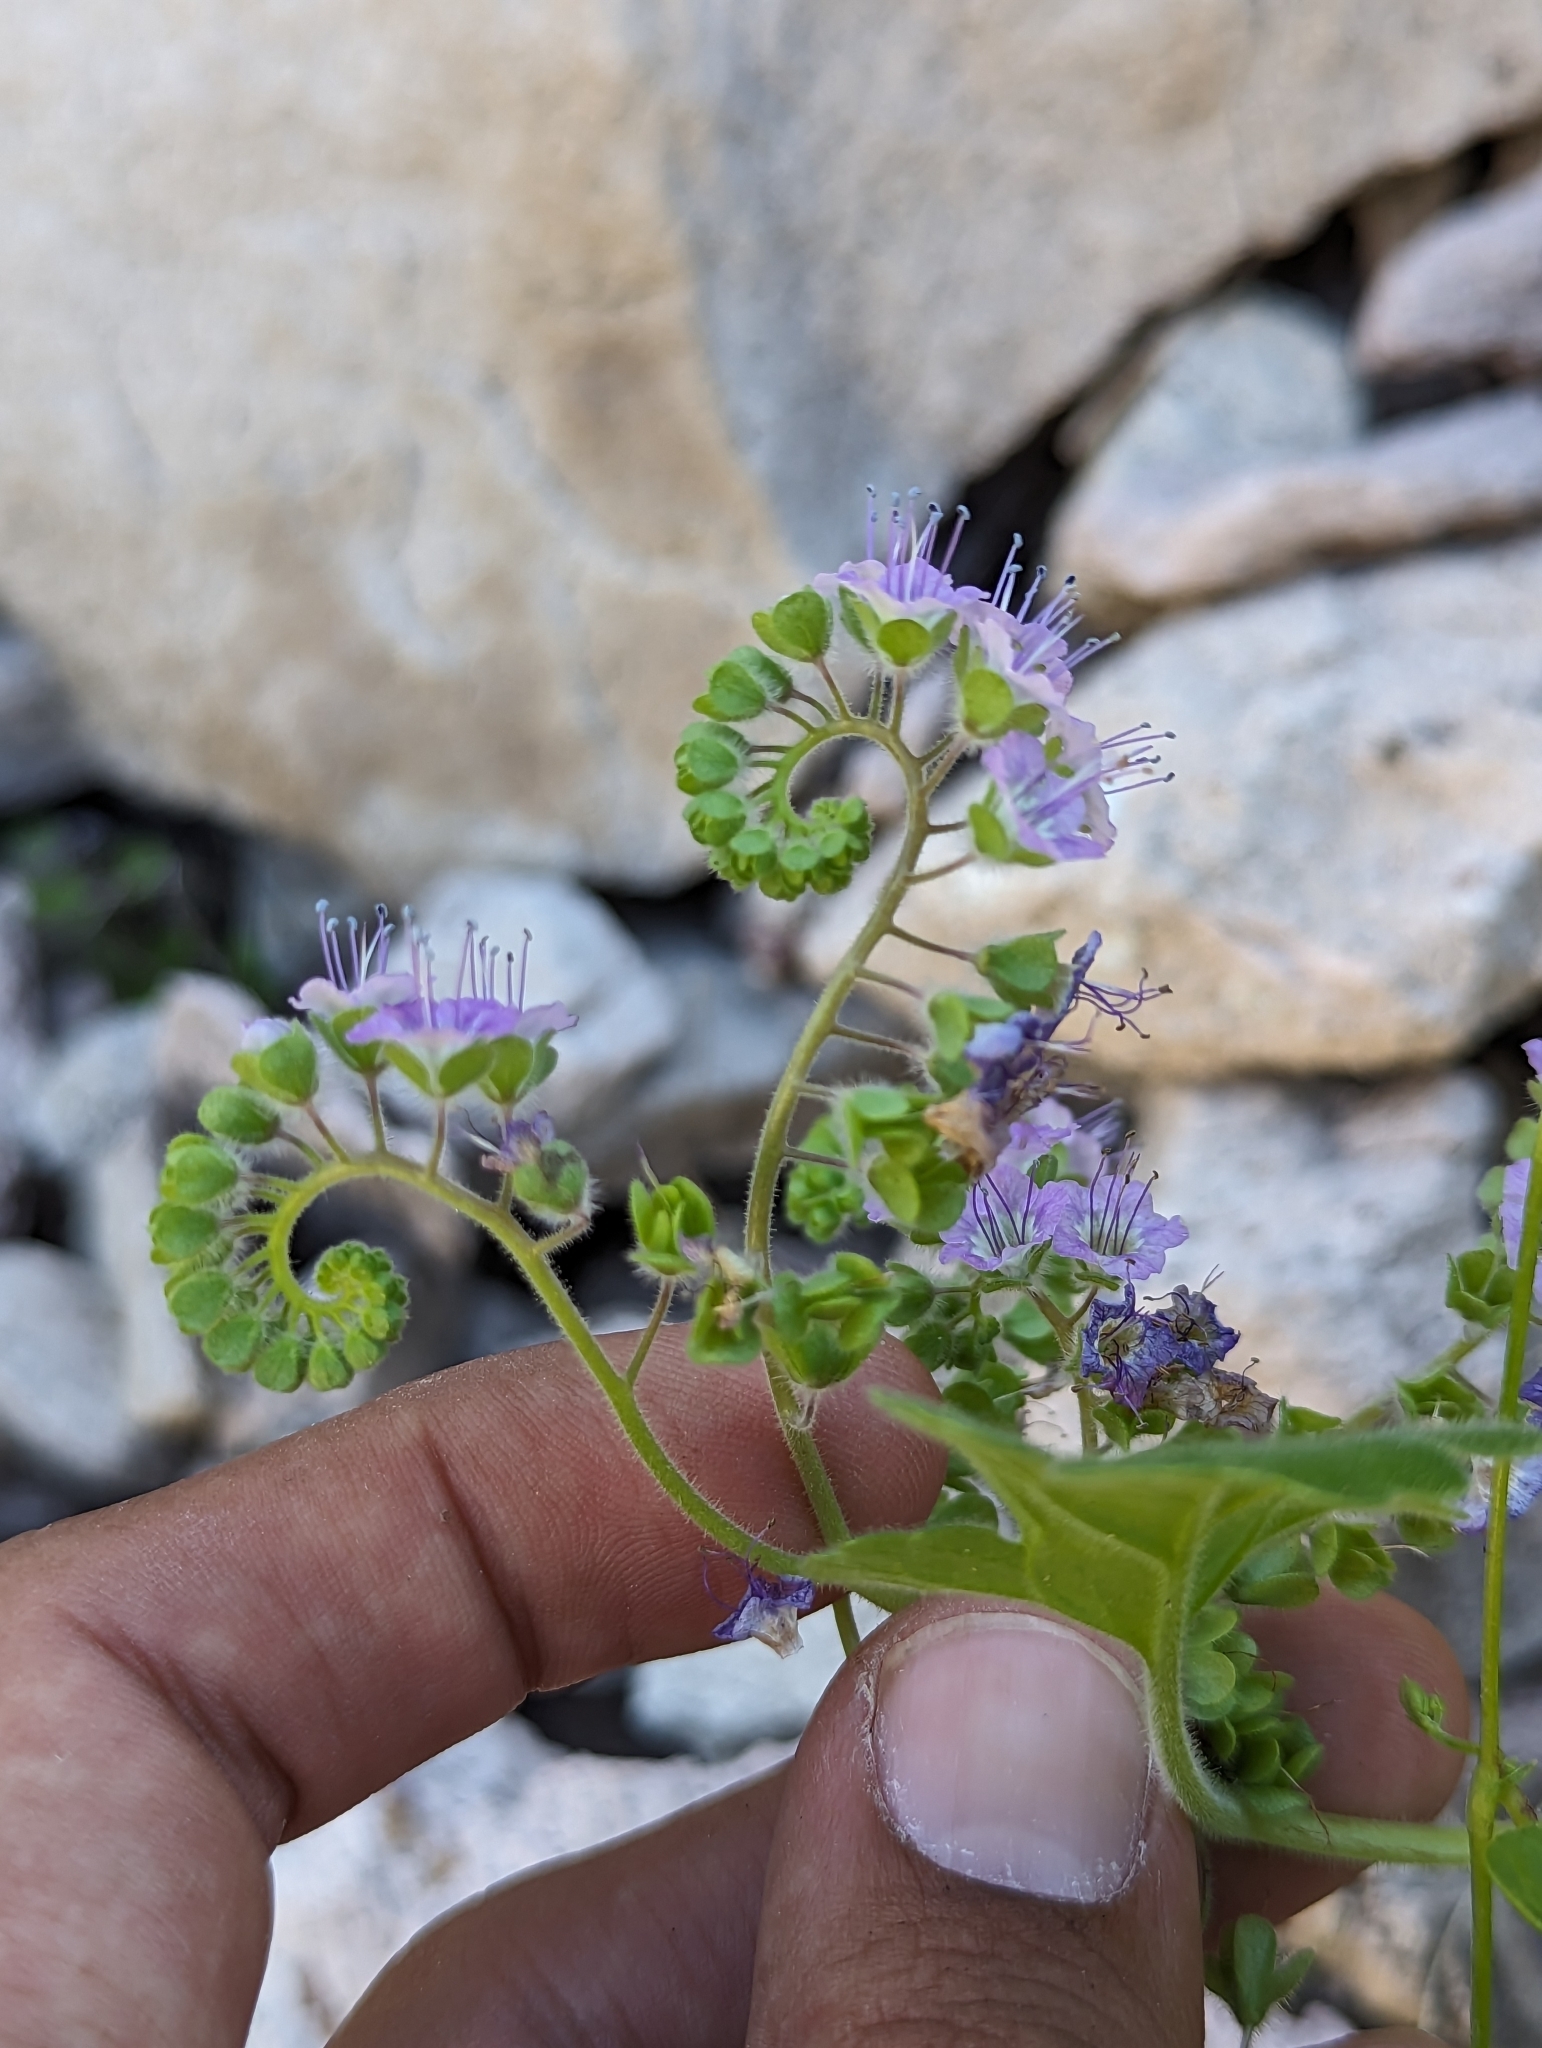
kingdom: Plantae
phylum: Tracheophyta
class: Magnoliopsida
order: Boraginales
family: Hydrophyllaceae
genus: Phacelia
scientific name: Phacelia scariosa
